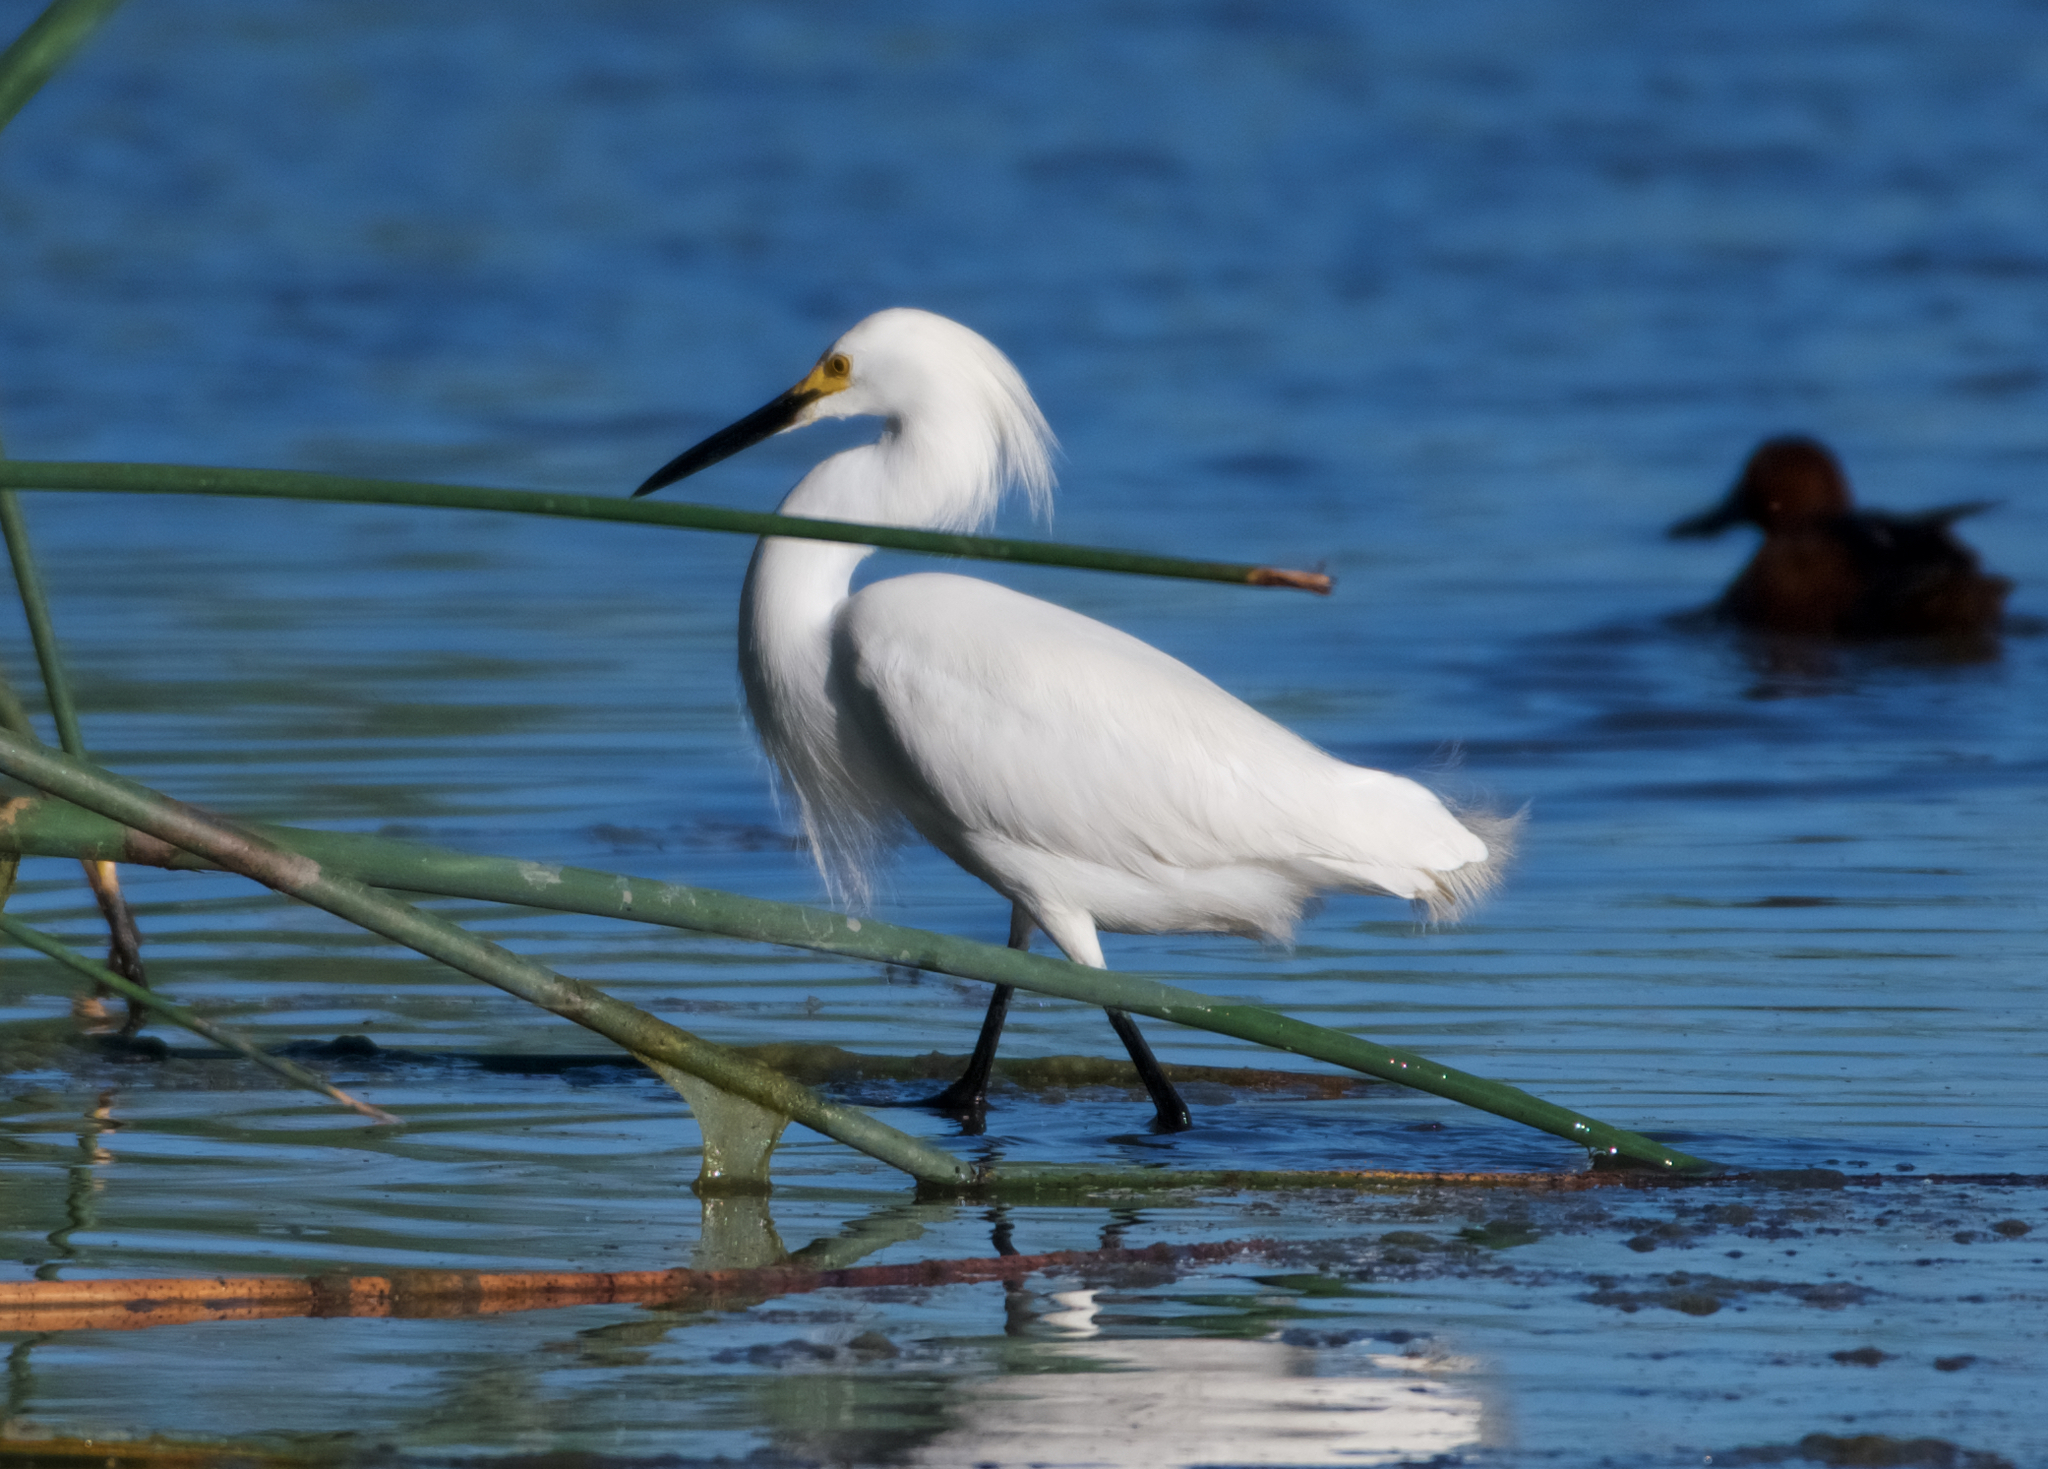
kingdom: Animalia
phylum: Chordata
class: Aves
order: Pelecaniformes
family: Ardeidae
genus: Egretta
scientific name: Egretta thula
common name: Snowy egret
